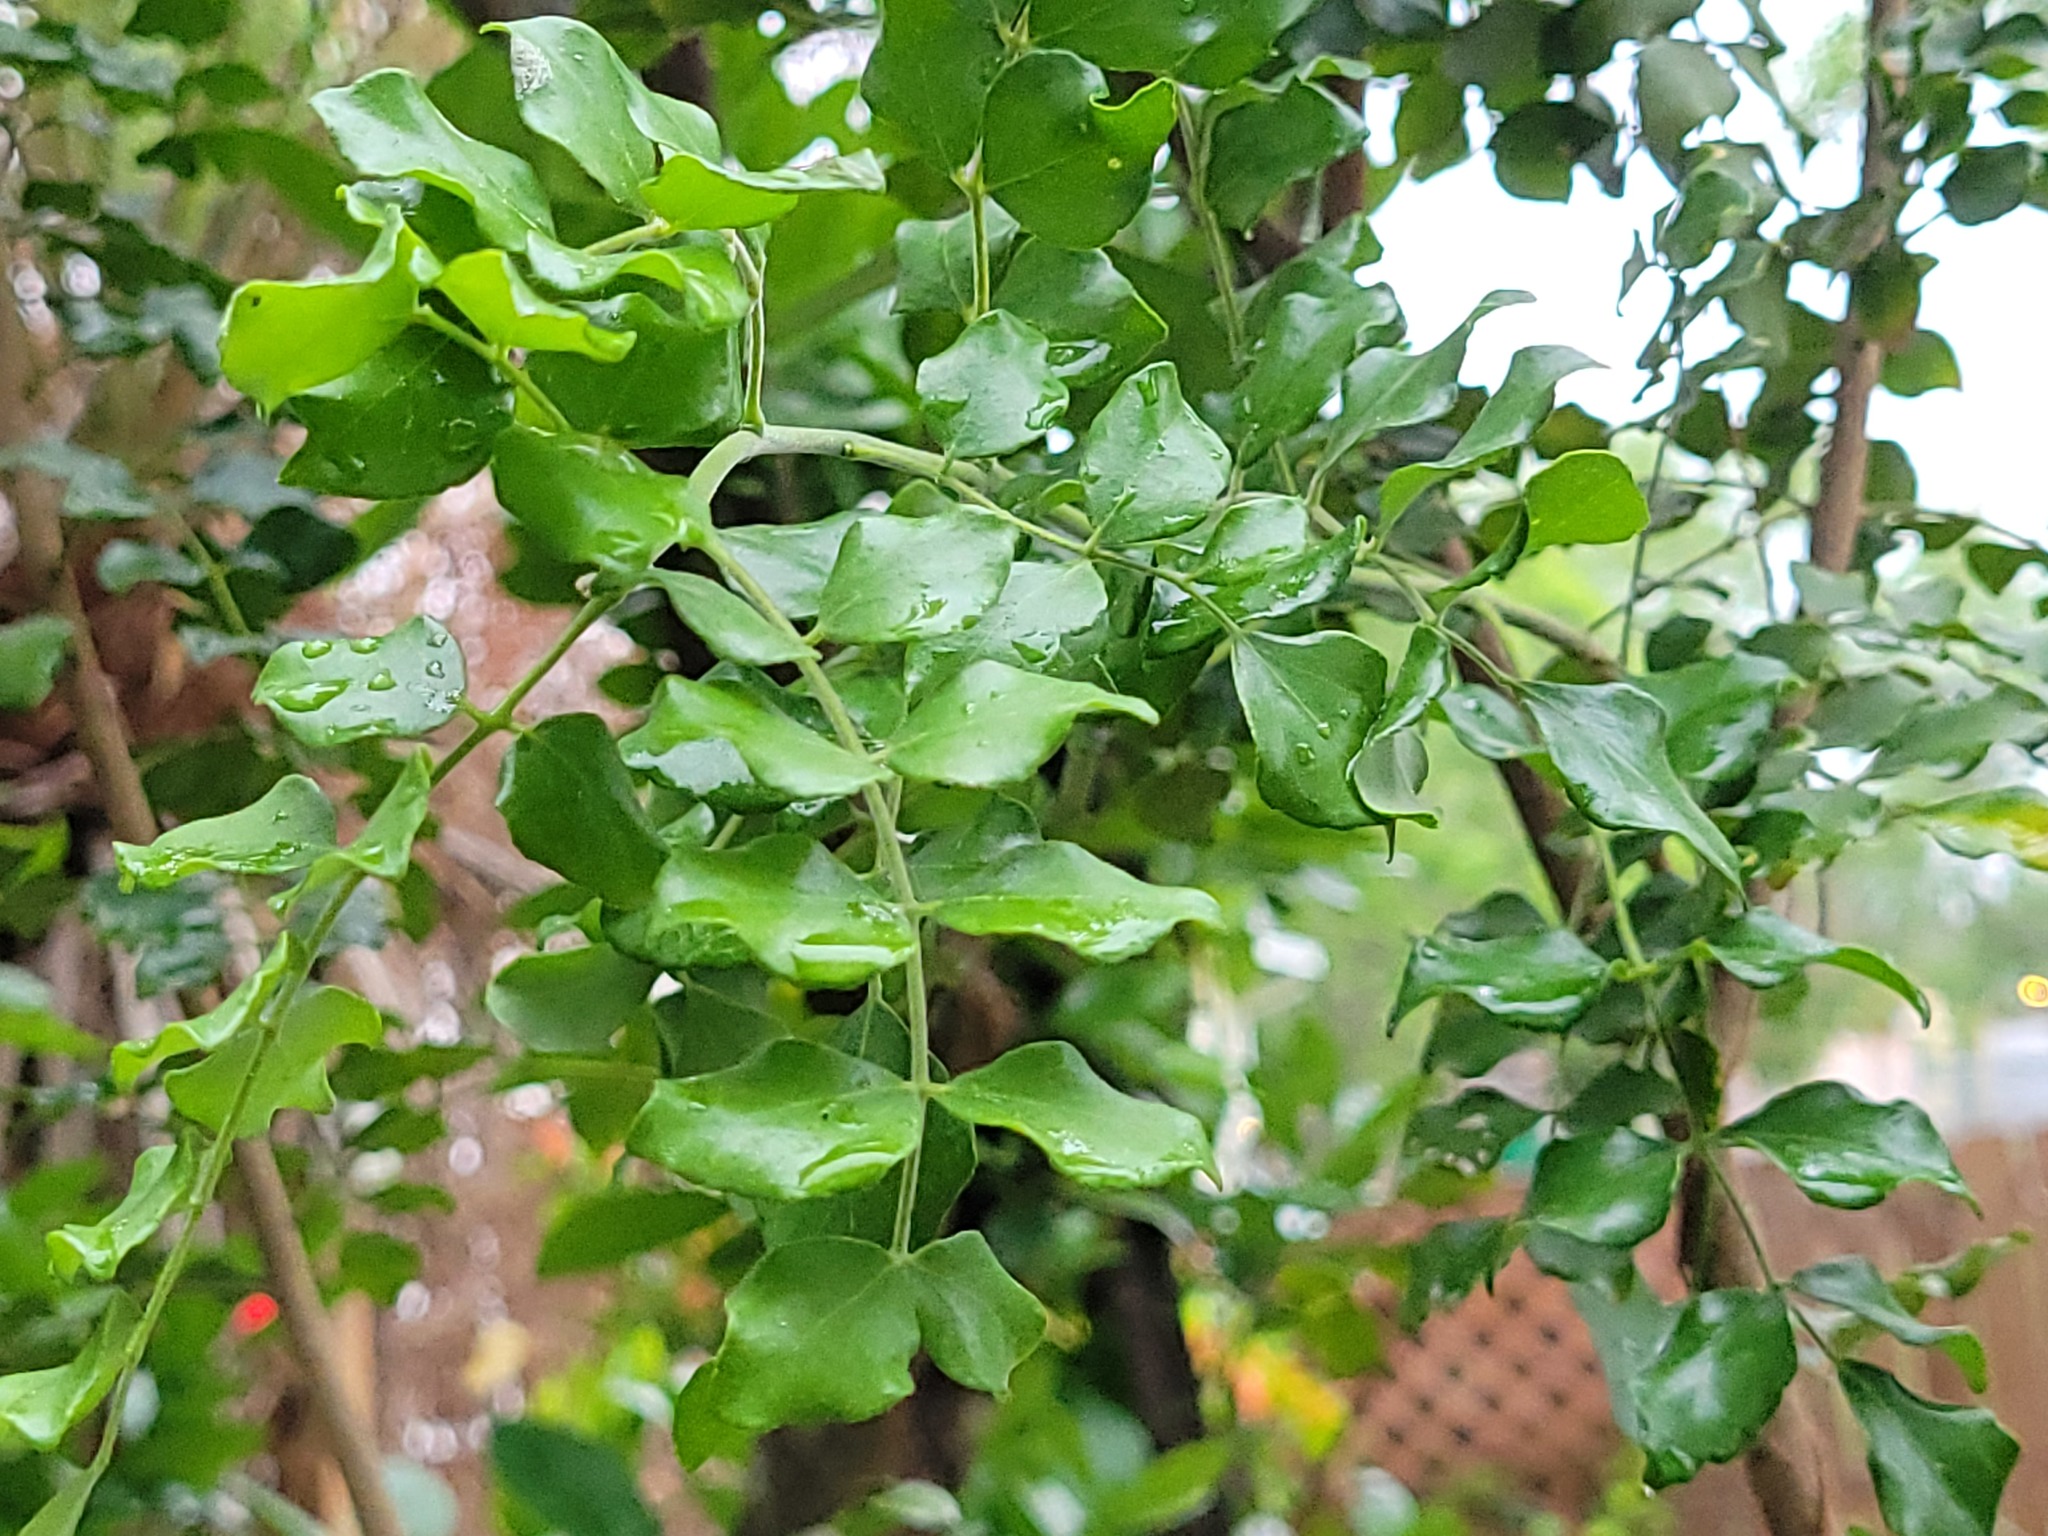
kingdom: Plantae
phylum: Tracheophyta
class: Magnoliopsida
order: Sapindales
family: Rutaceae
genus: Amyris
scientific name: Amyris madrensis
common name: Mountain torchwood
